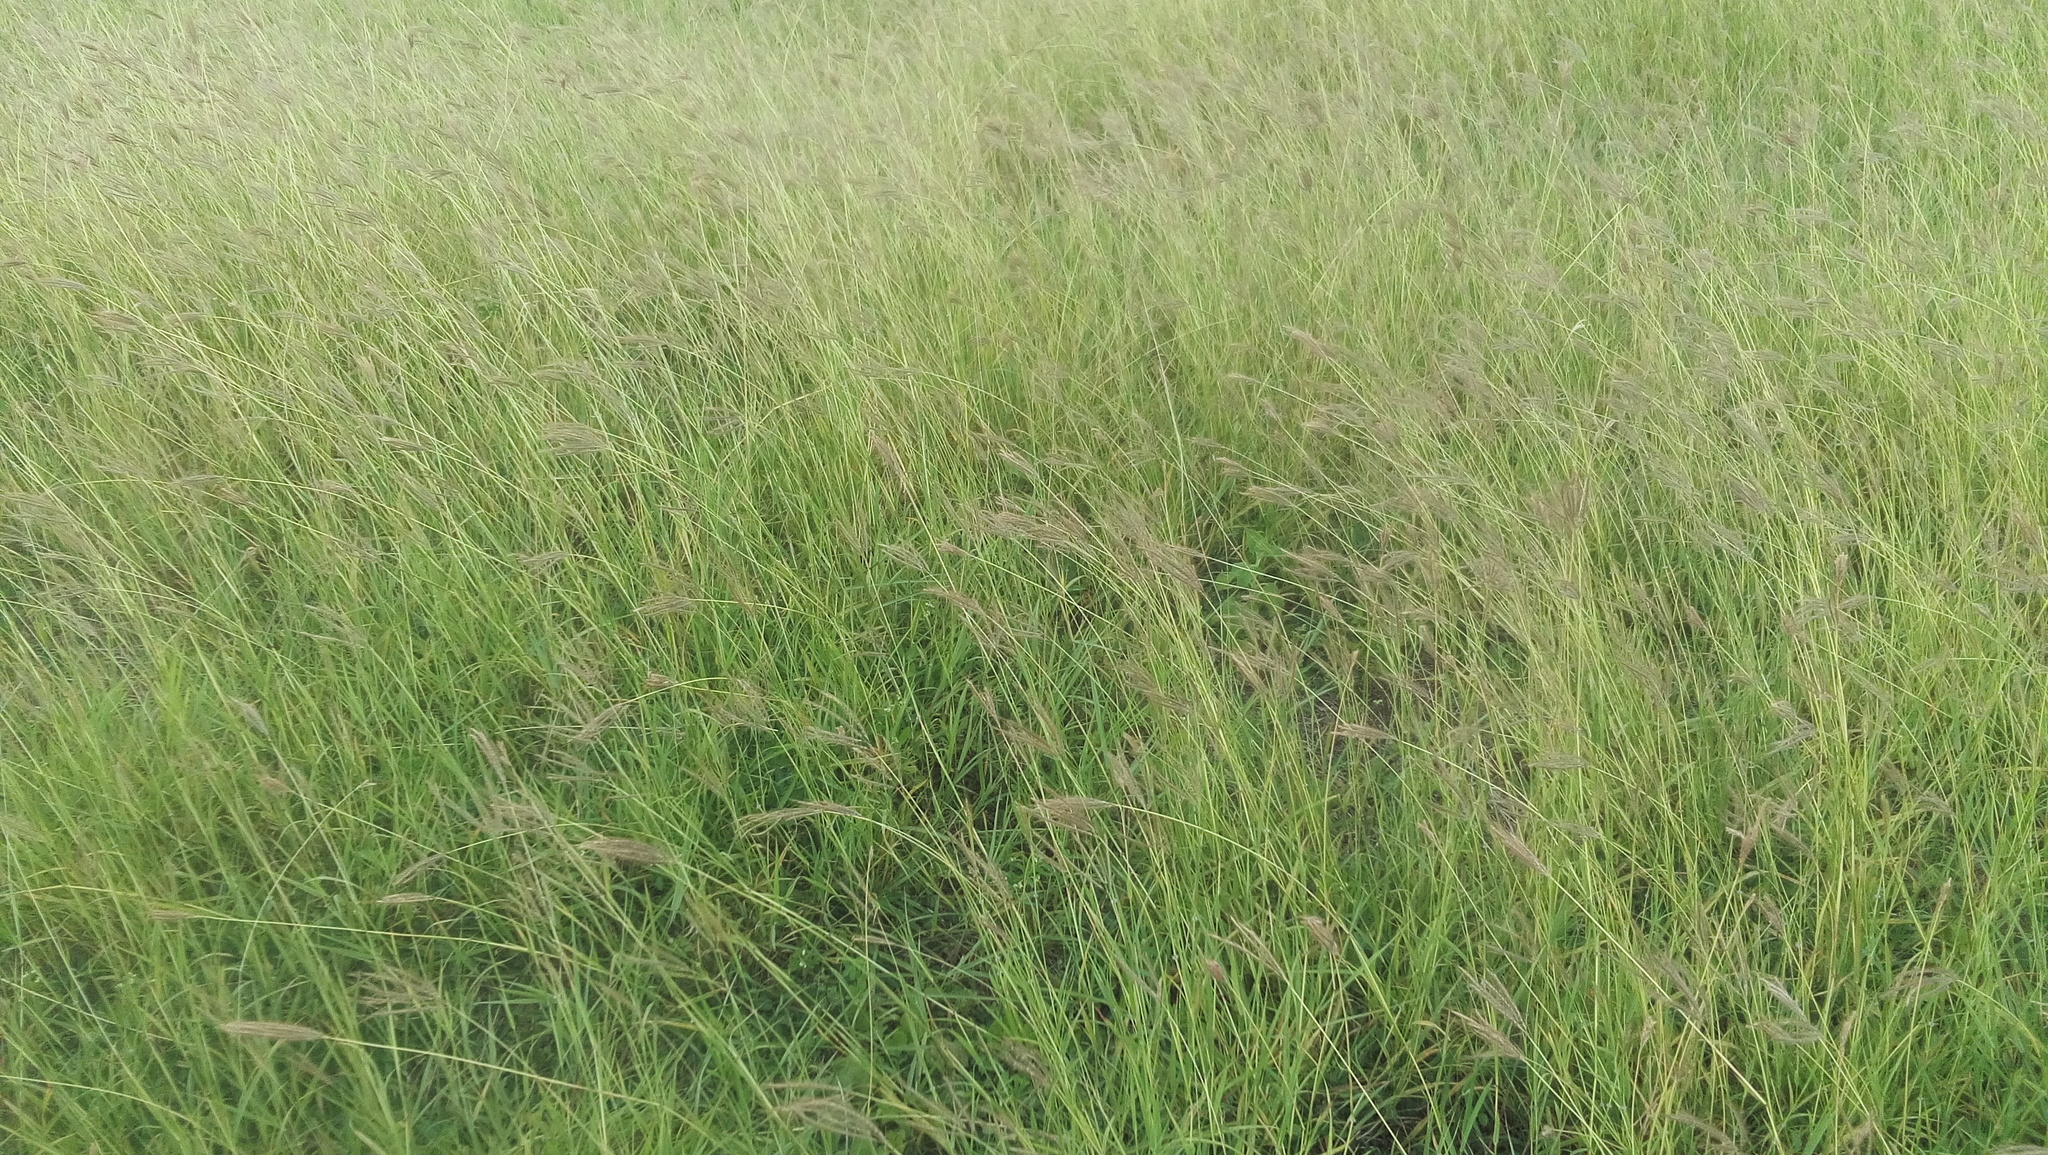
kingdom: Plantae
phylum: Tracheophyta
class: Liliopsida
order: Poales
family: Poaceae
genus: Dichanthium
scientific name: Dichanthium annulatum
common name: Kleberg's bluestem
